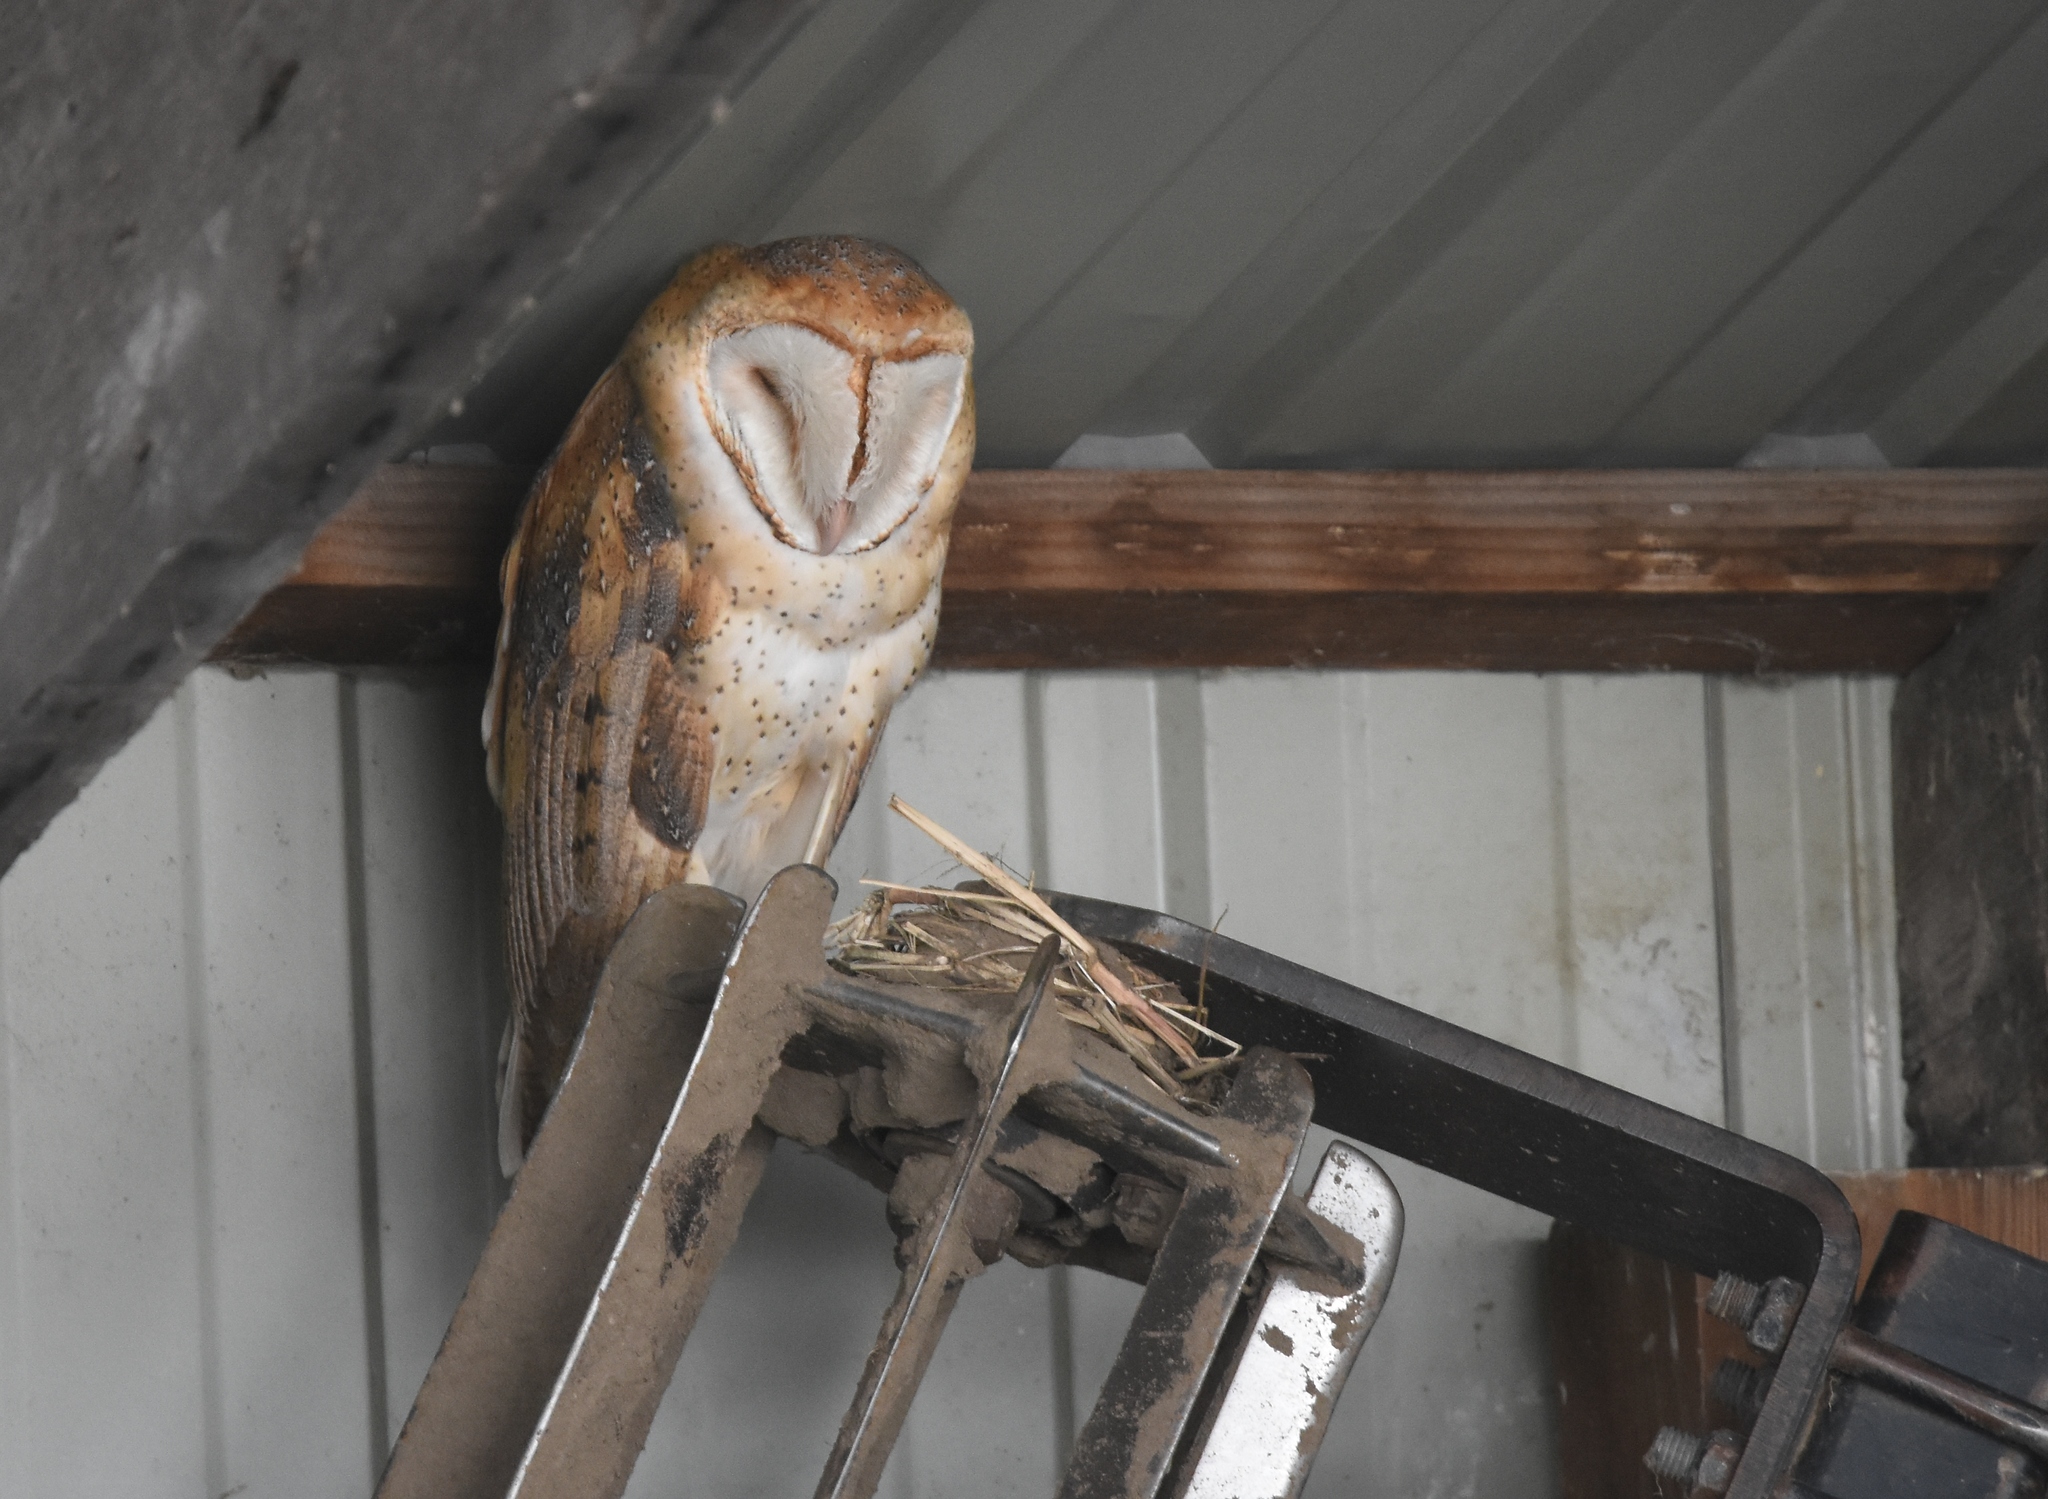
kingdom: Animalia
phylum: Chordata
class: Aves
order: Strigiformes
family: Tytonidae
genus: Tyto
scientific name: Tyto alba
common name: Barn owl
